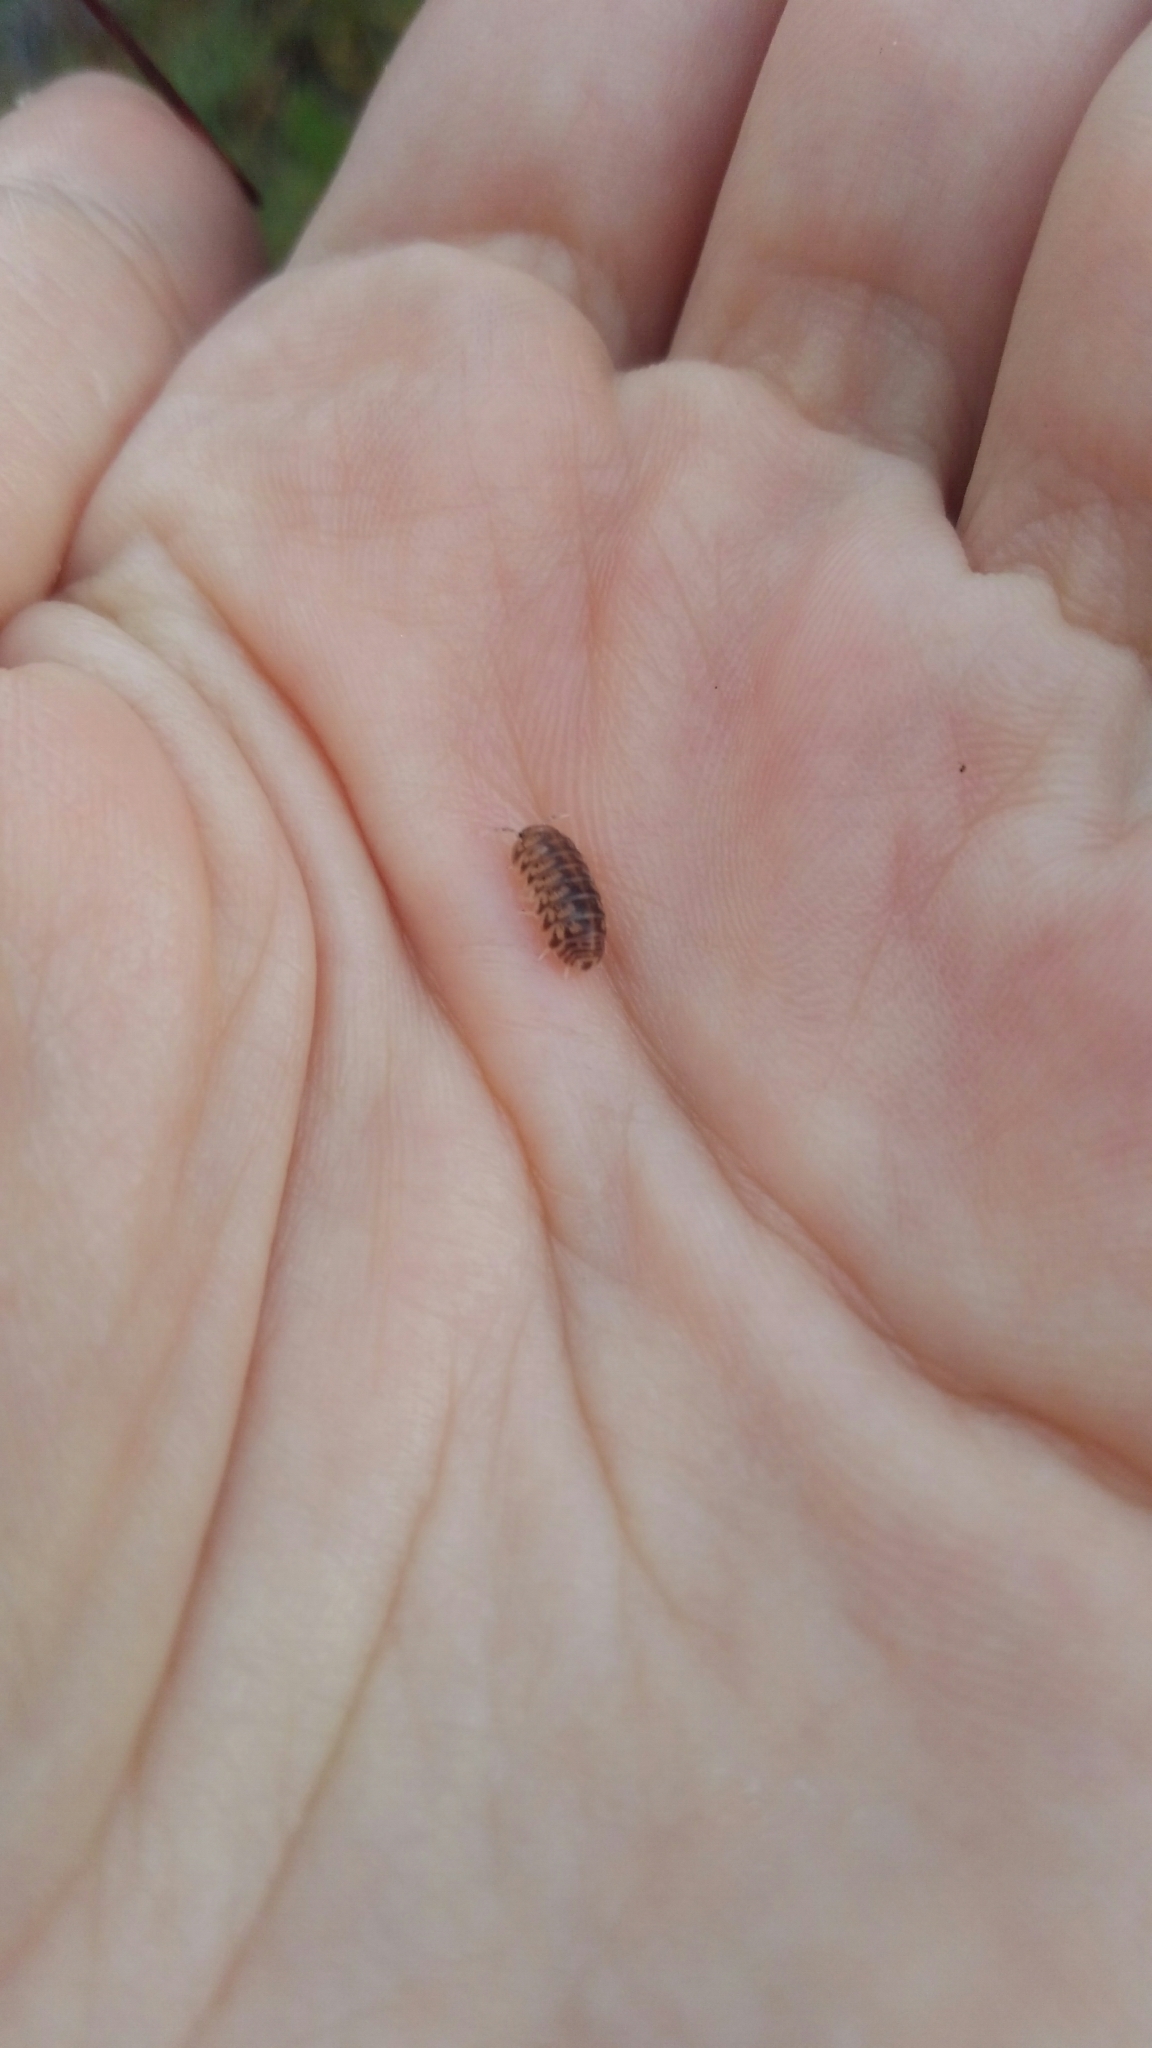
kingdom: Animalia
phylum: Arthropoda
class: Malacostraca
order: Isopoda
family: Armadillidae
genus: Venezillo
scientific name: Venezillo parvus
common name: Pillbug
